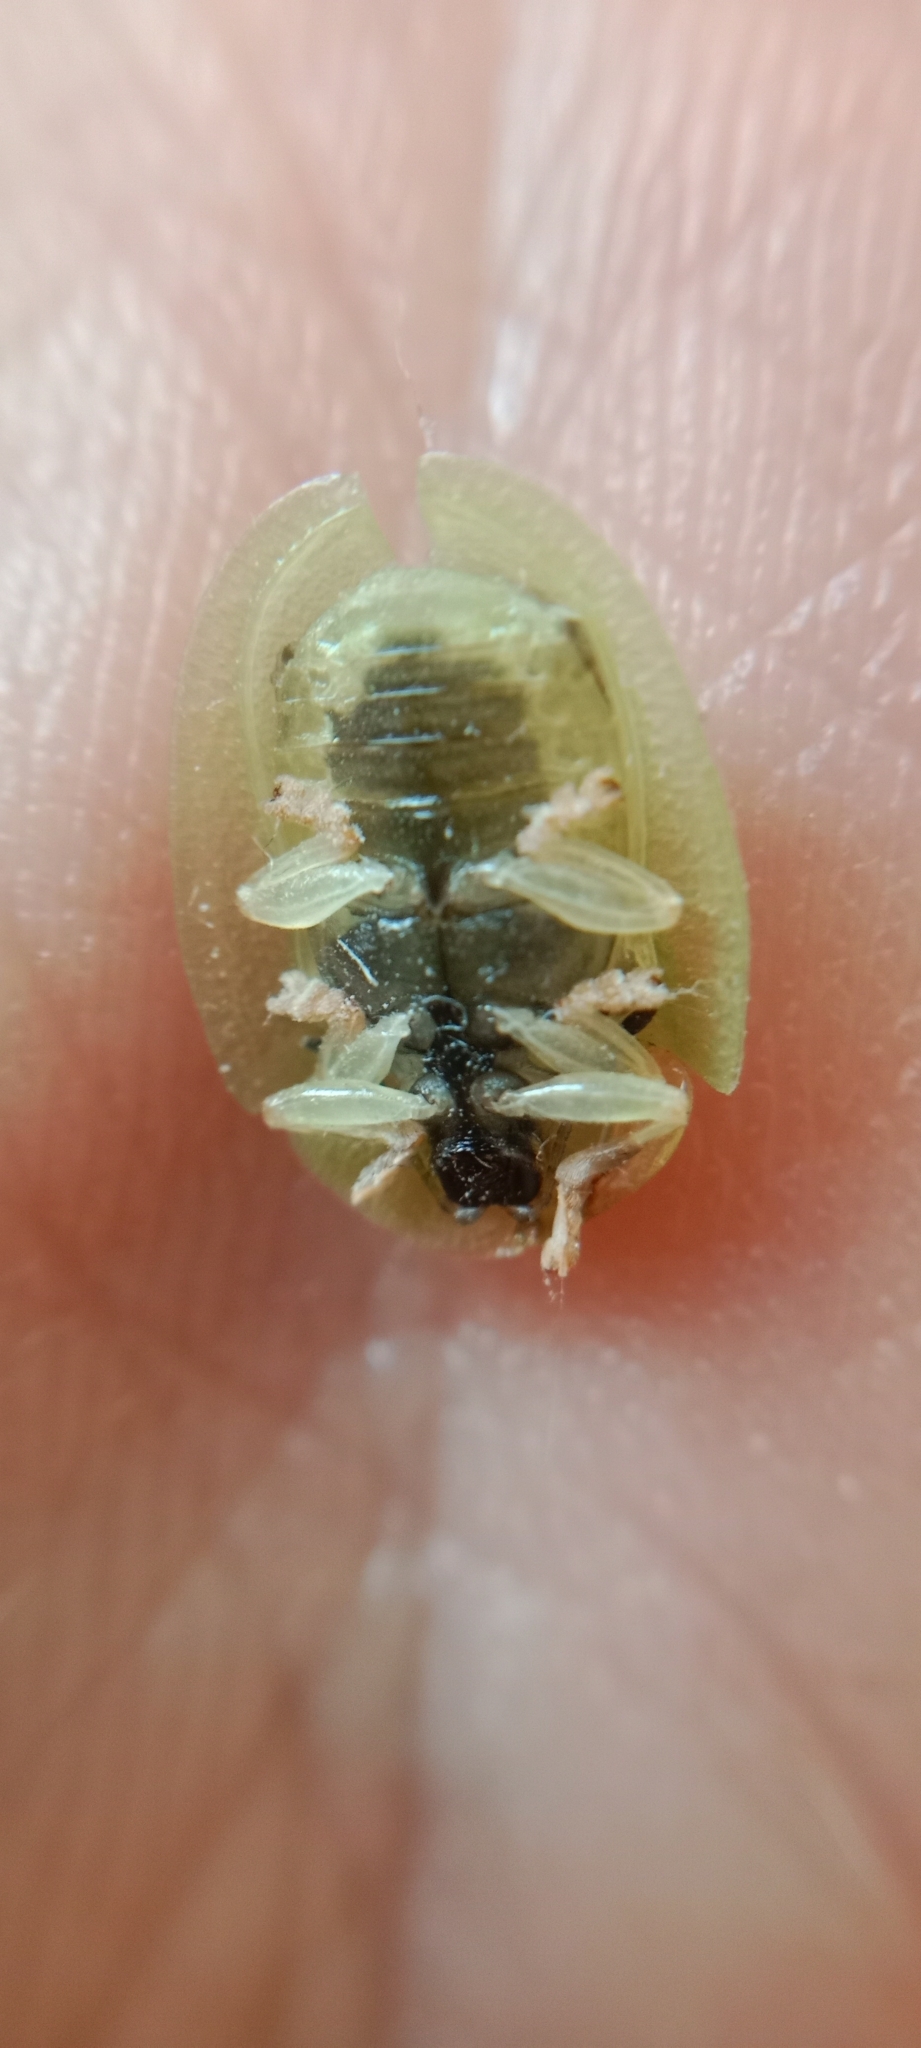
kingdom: Animalia
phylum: Arthropoda
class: Insecta
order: Coleoptera
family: Chrysomelidae
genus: Cassida
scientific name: Cassida viridis
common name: Green tortoise beetle
